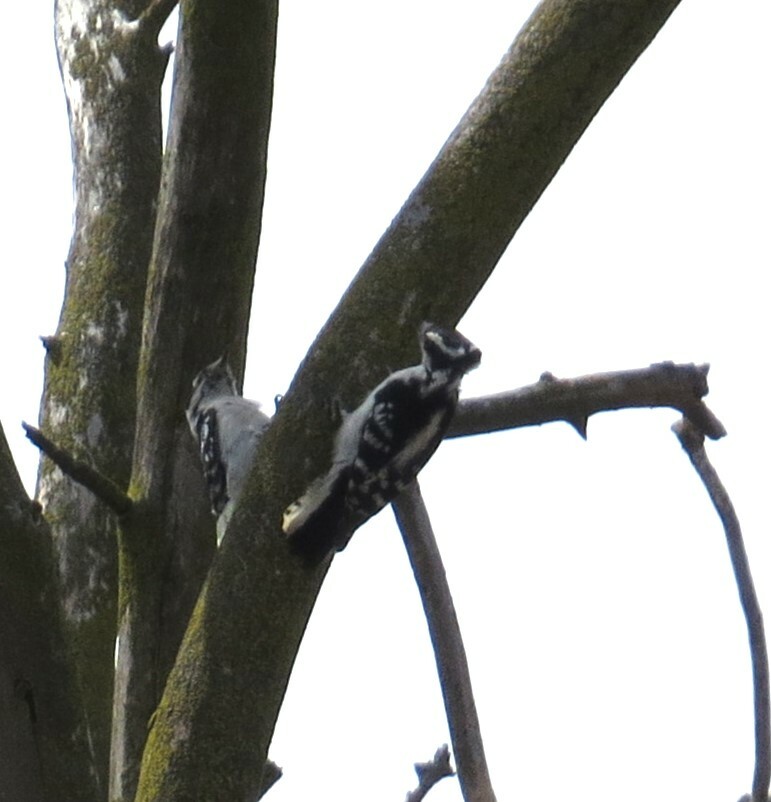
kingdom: Animalia
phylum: Chordata
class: Aves
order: Piciformes
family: Picidae
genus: Dryobates
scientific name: Dryobates pubescens
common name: Downy woodpecker
